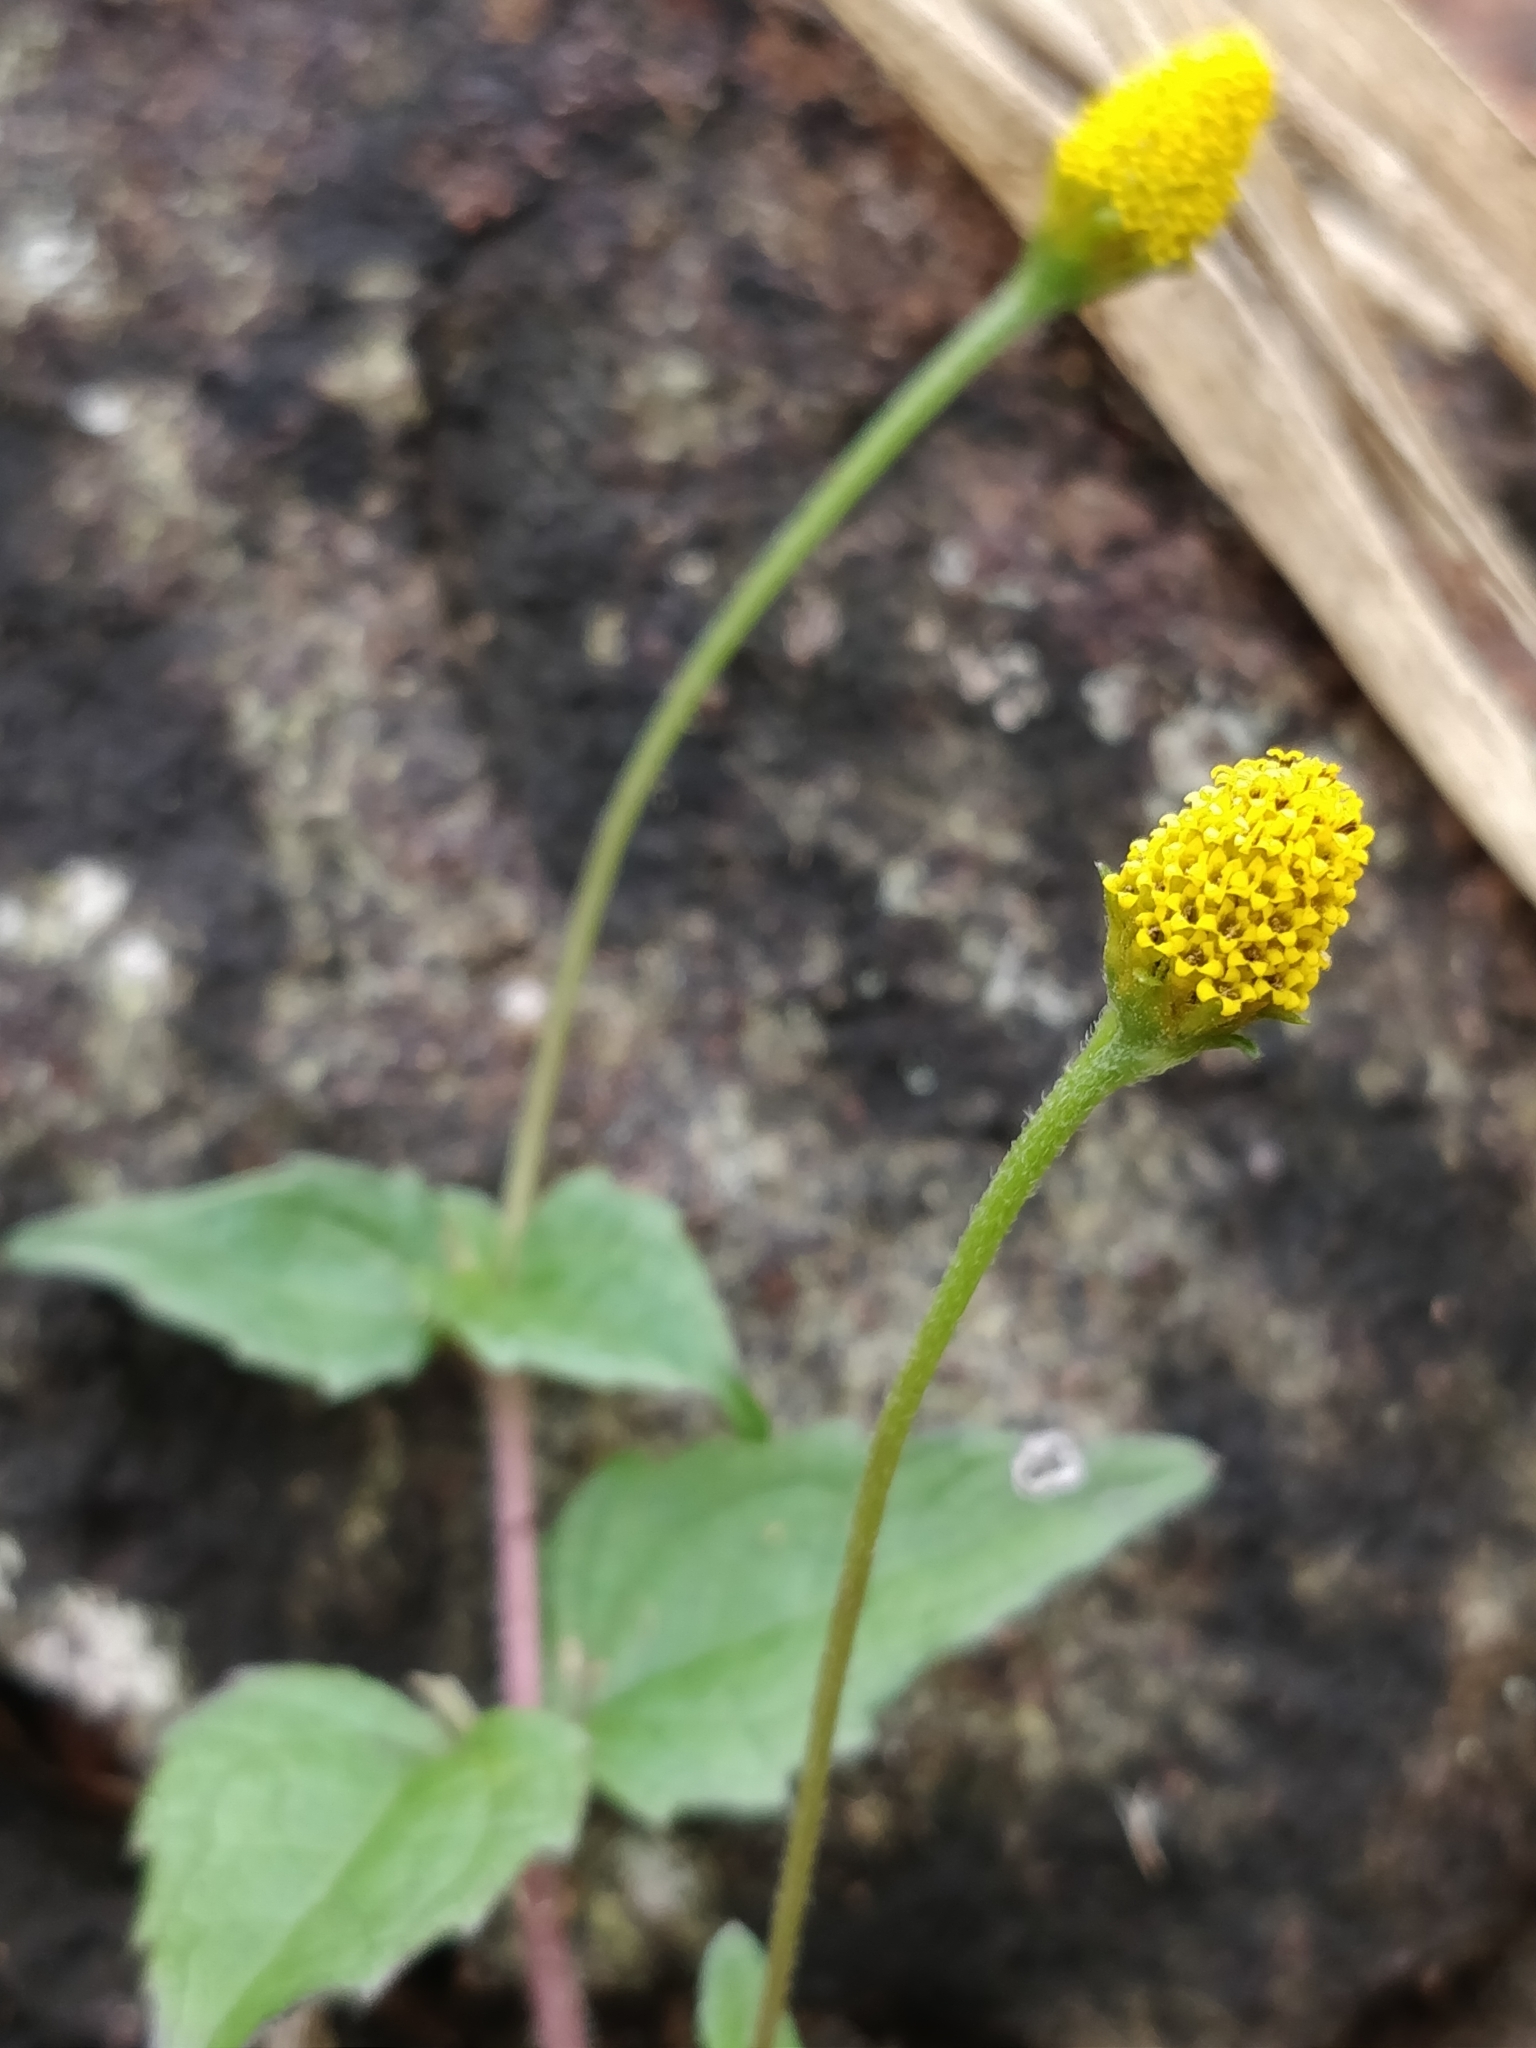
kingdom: Plantae
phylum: Tracheophyta
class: Magnoliopsida
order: Asterales
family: Asteraceae
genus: Acmella
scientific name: Acmella paniculata
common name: Panicled spot flower
